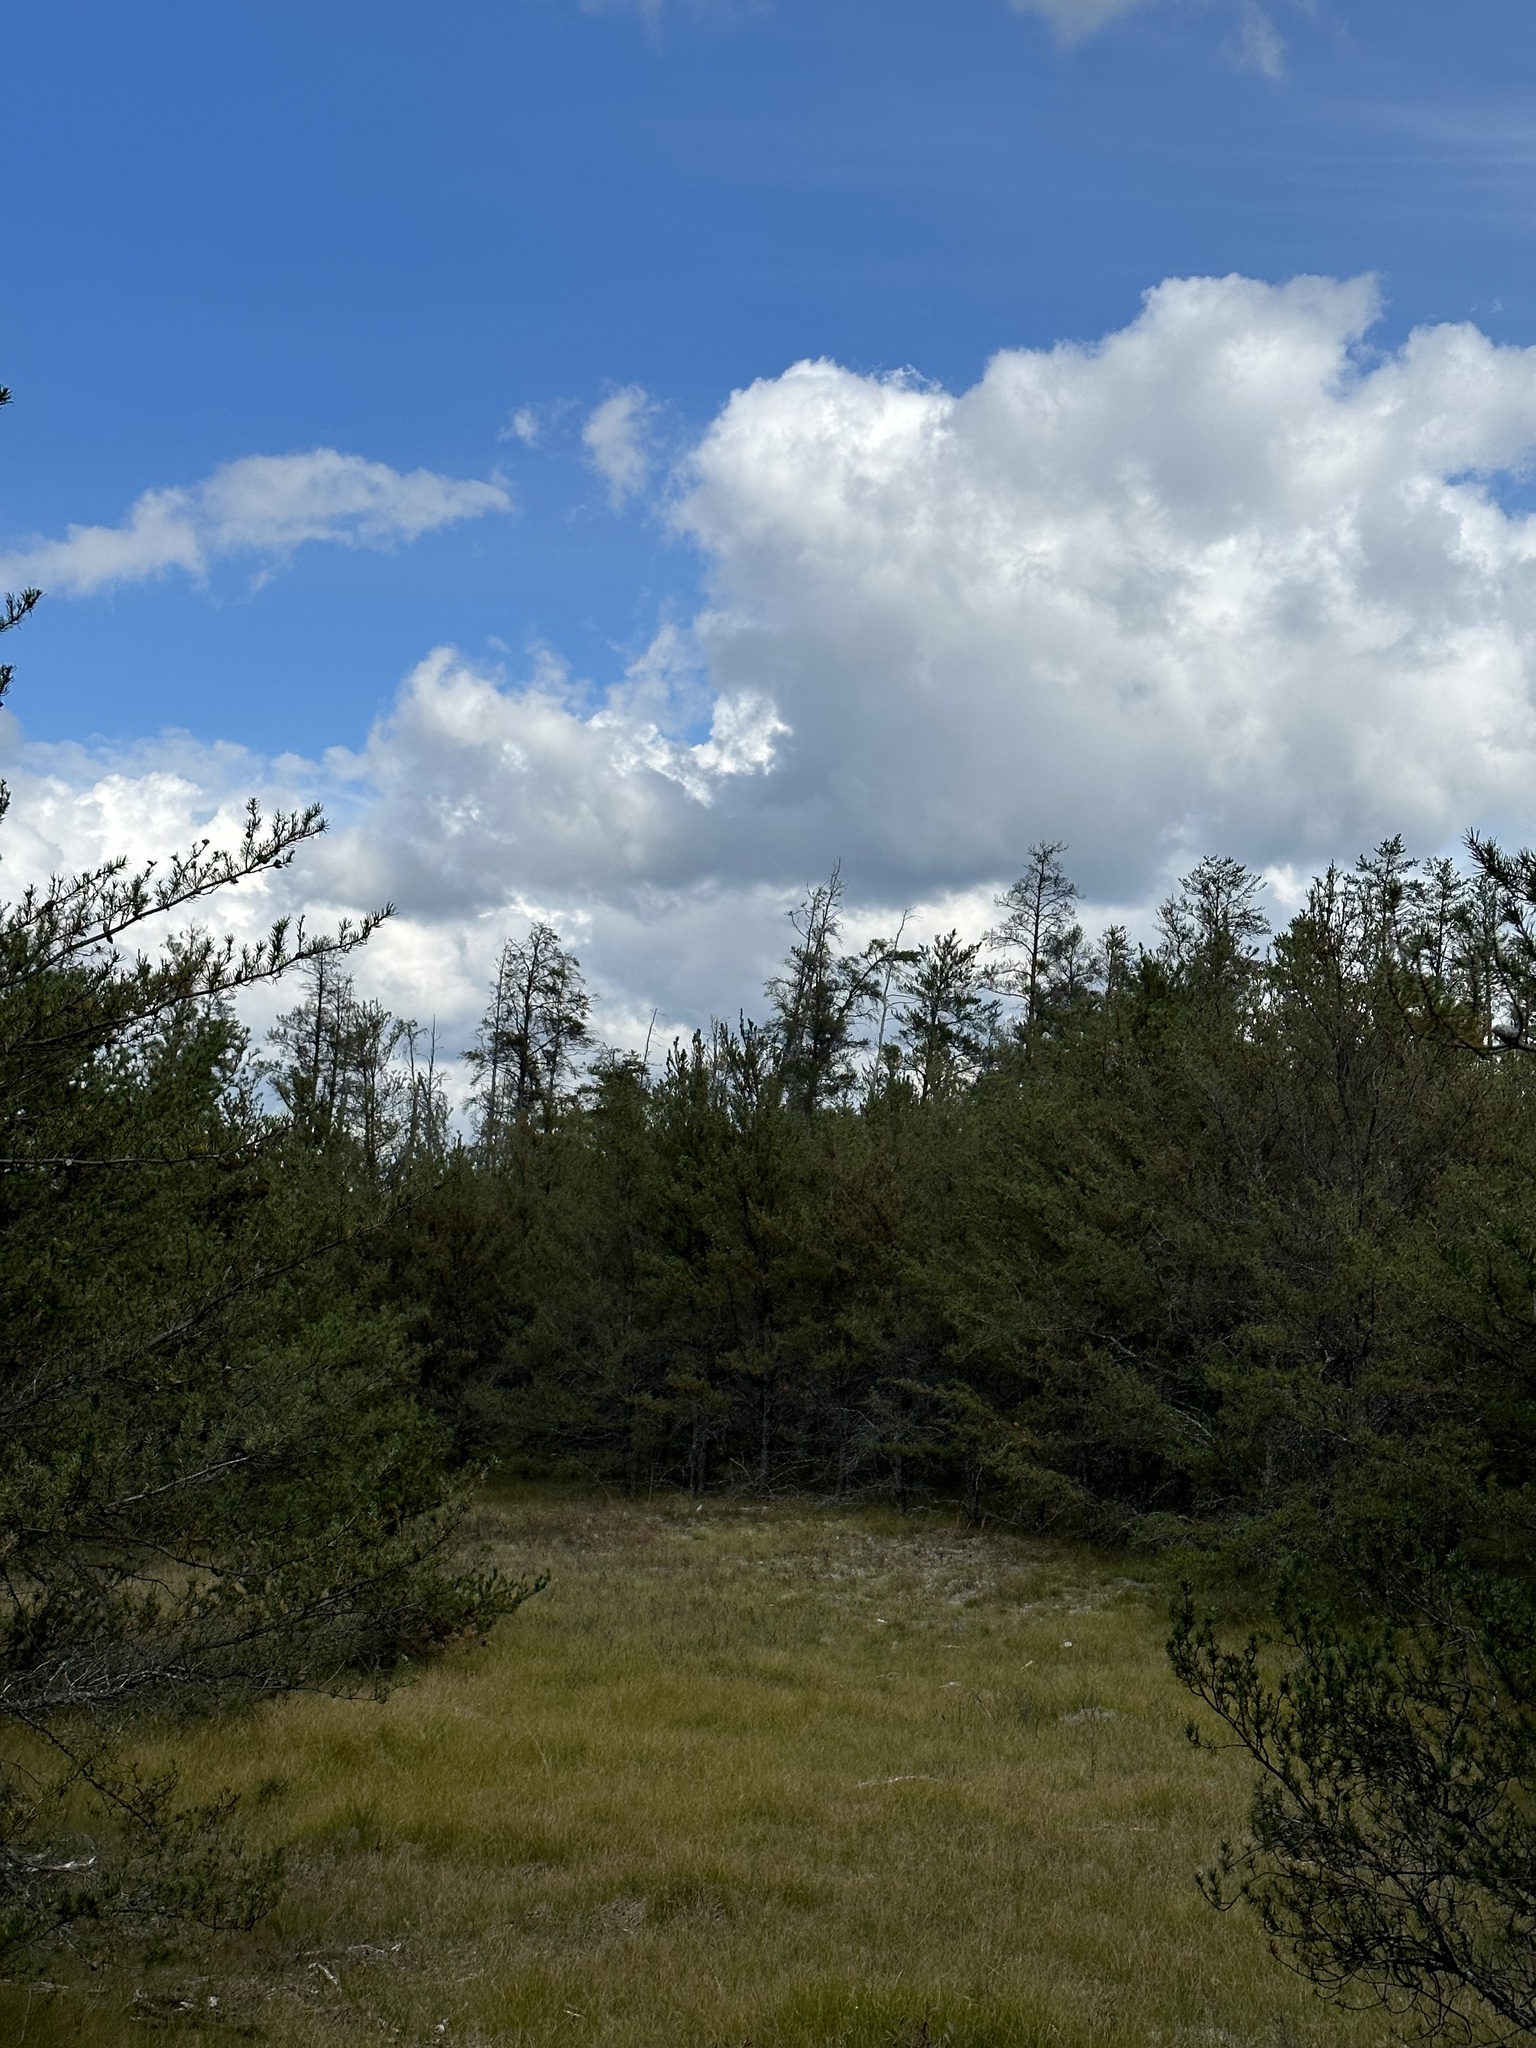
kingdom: Plantae
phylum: Tracheophyta
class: Pinopsida
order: Pinales
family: Pinaceae
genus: Pinus
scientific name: Pinus banksiana
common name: Jack pine
